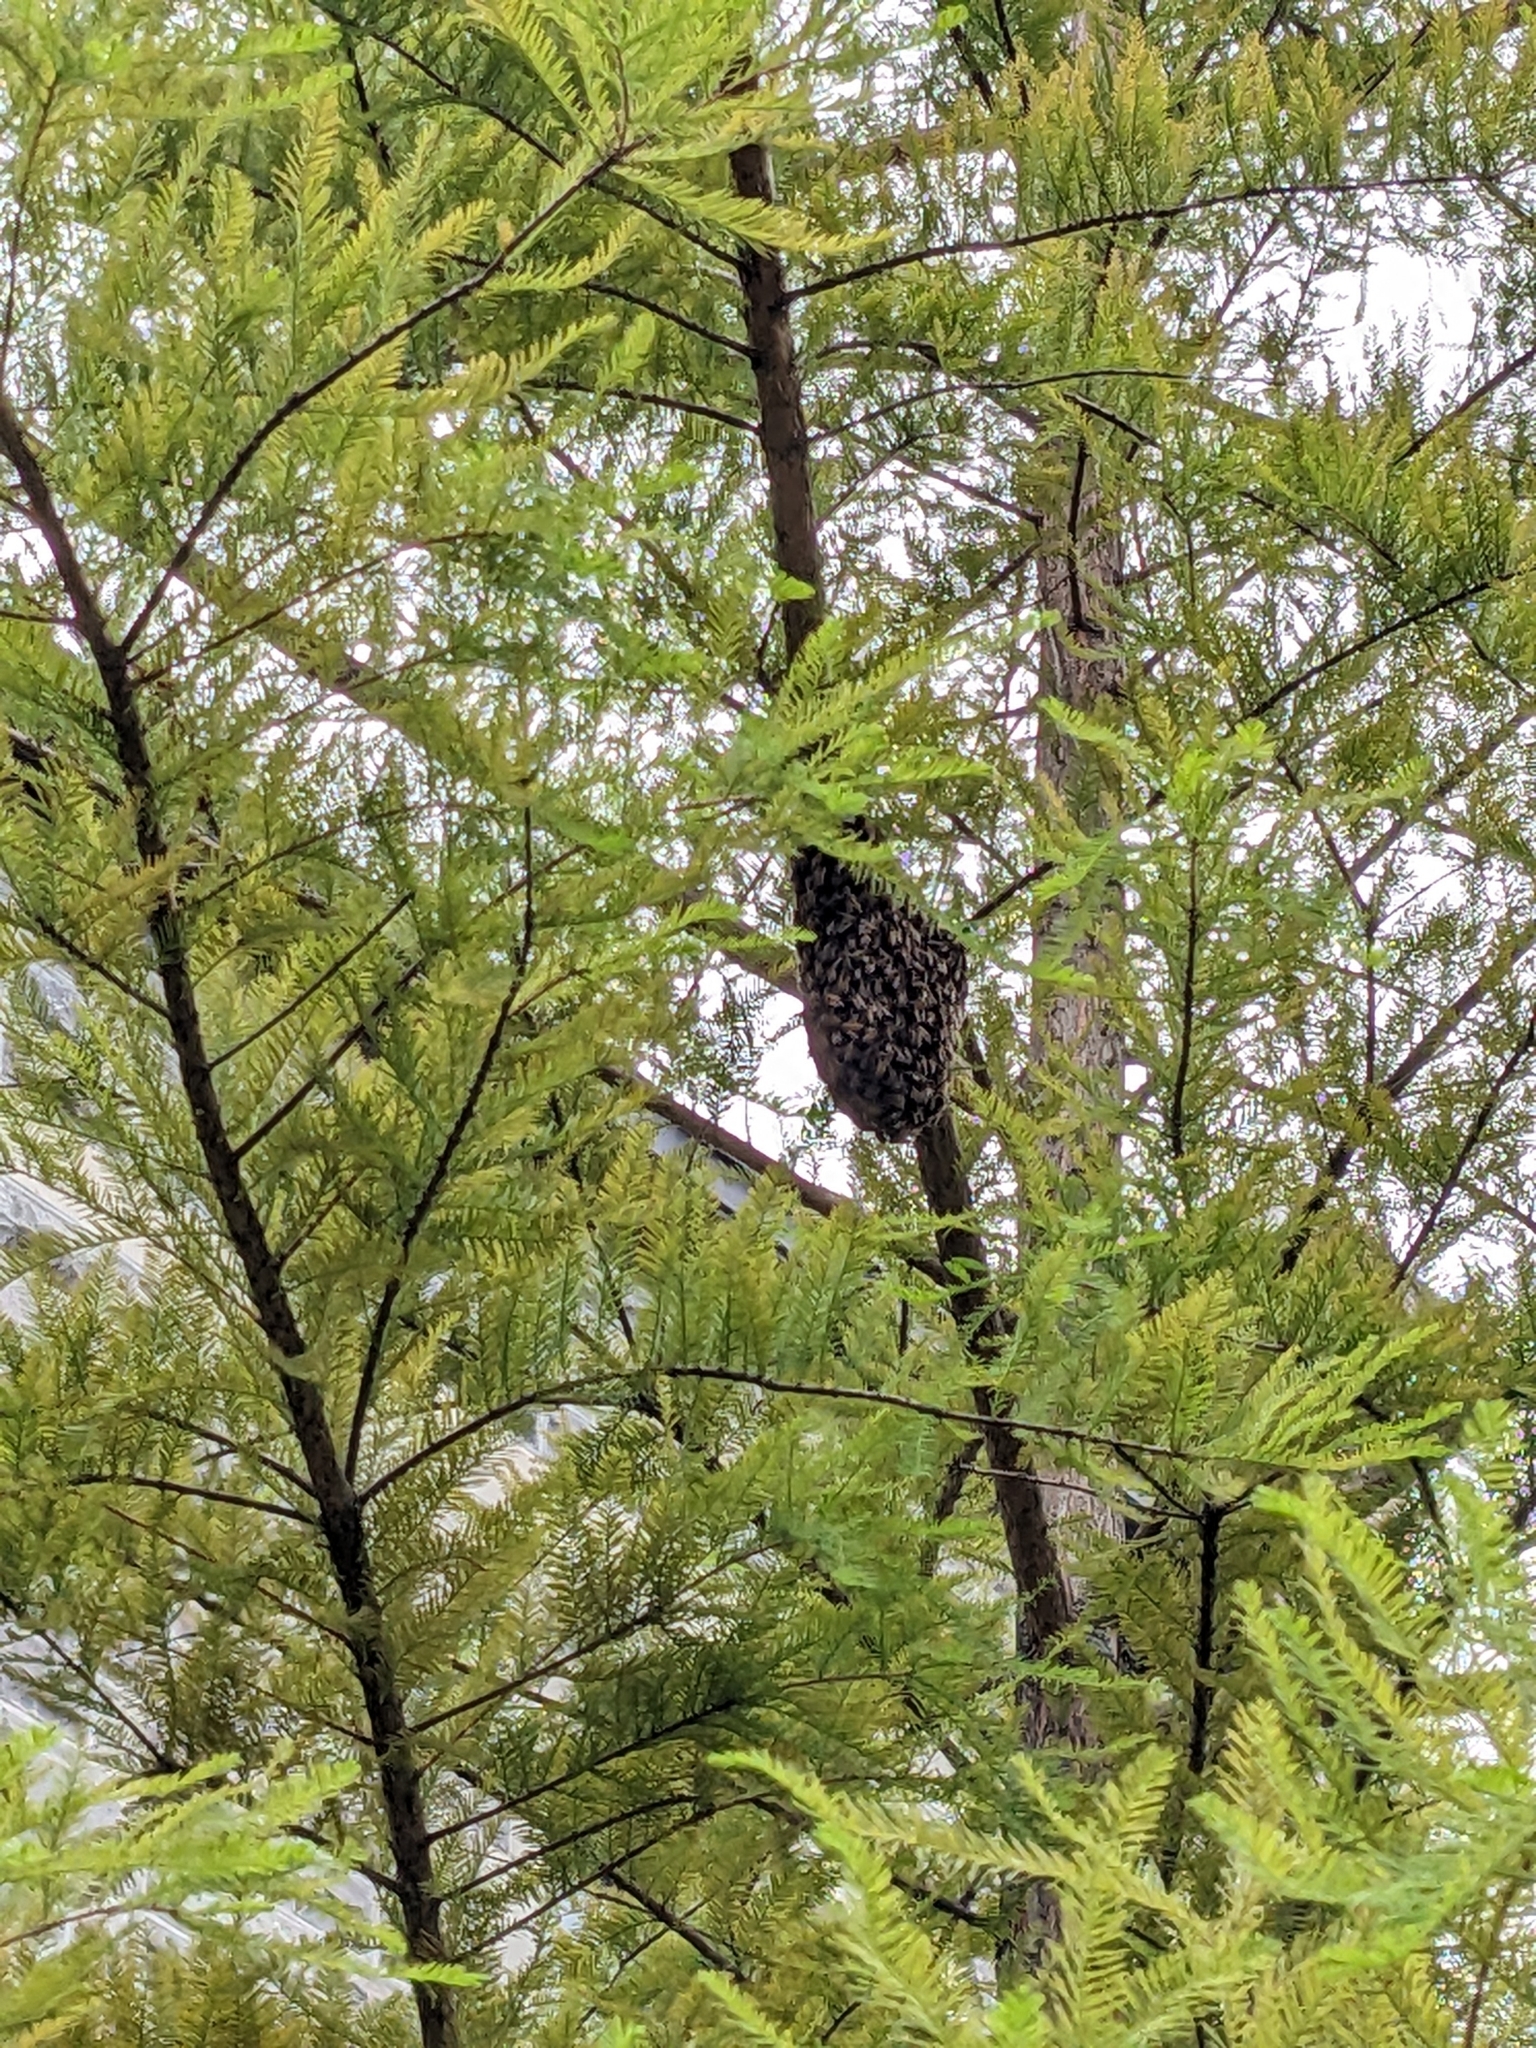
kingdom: Animalia
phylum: Arthropoda
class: Insecta
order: Hymenoptera
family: Apidae
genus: Apis
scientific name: Apis mellifera
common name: Honey bee
